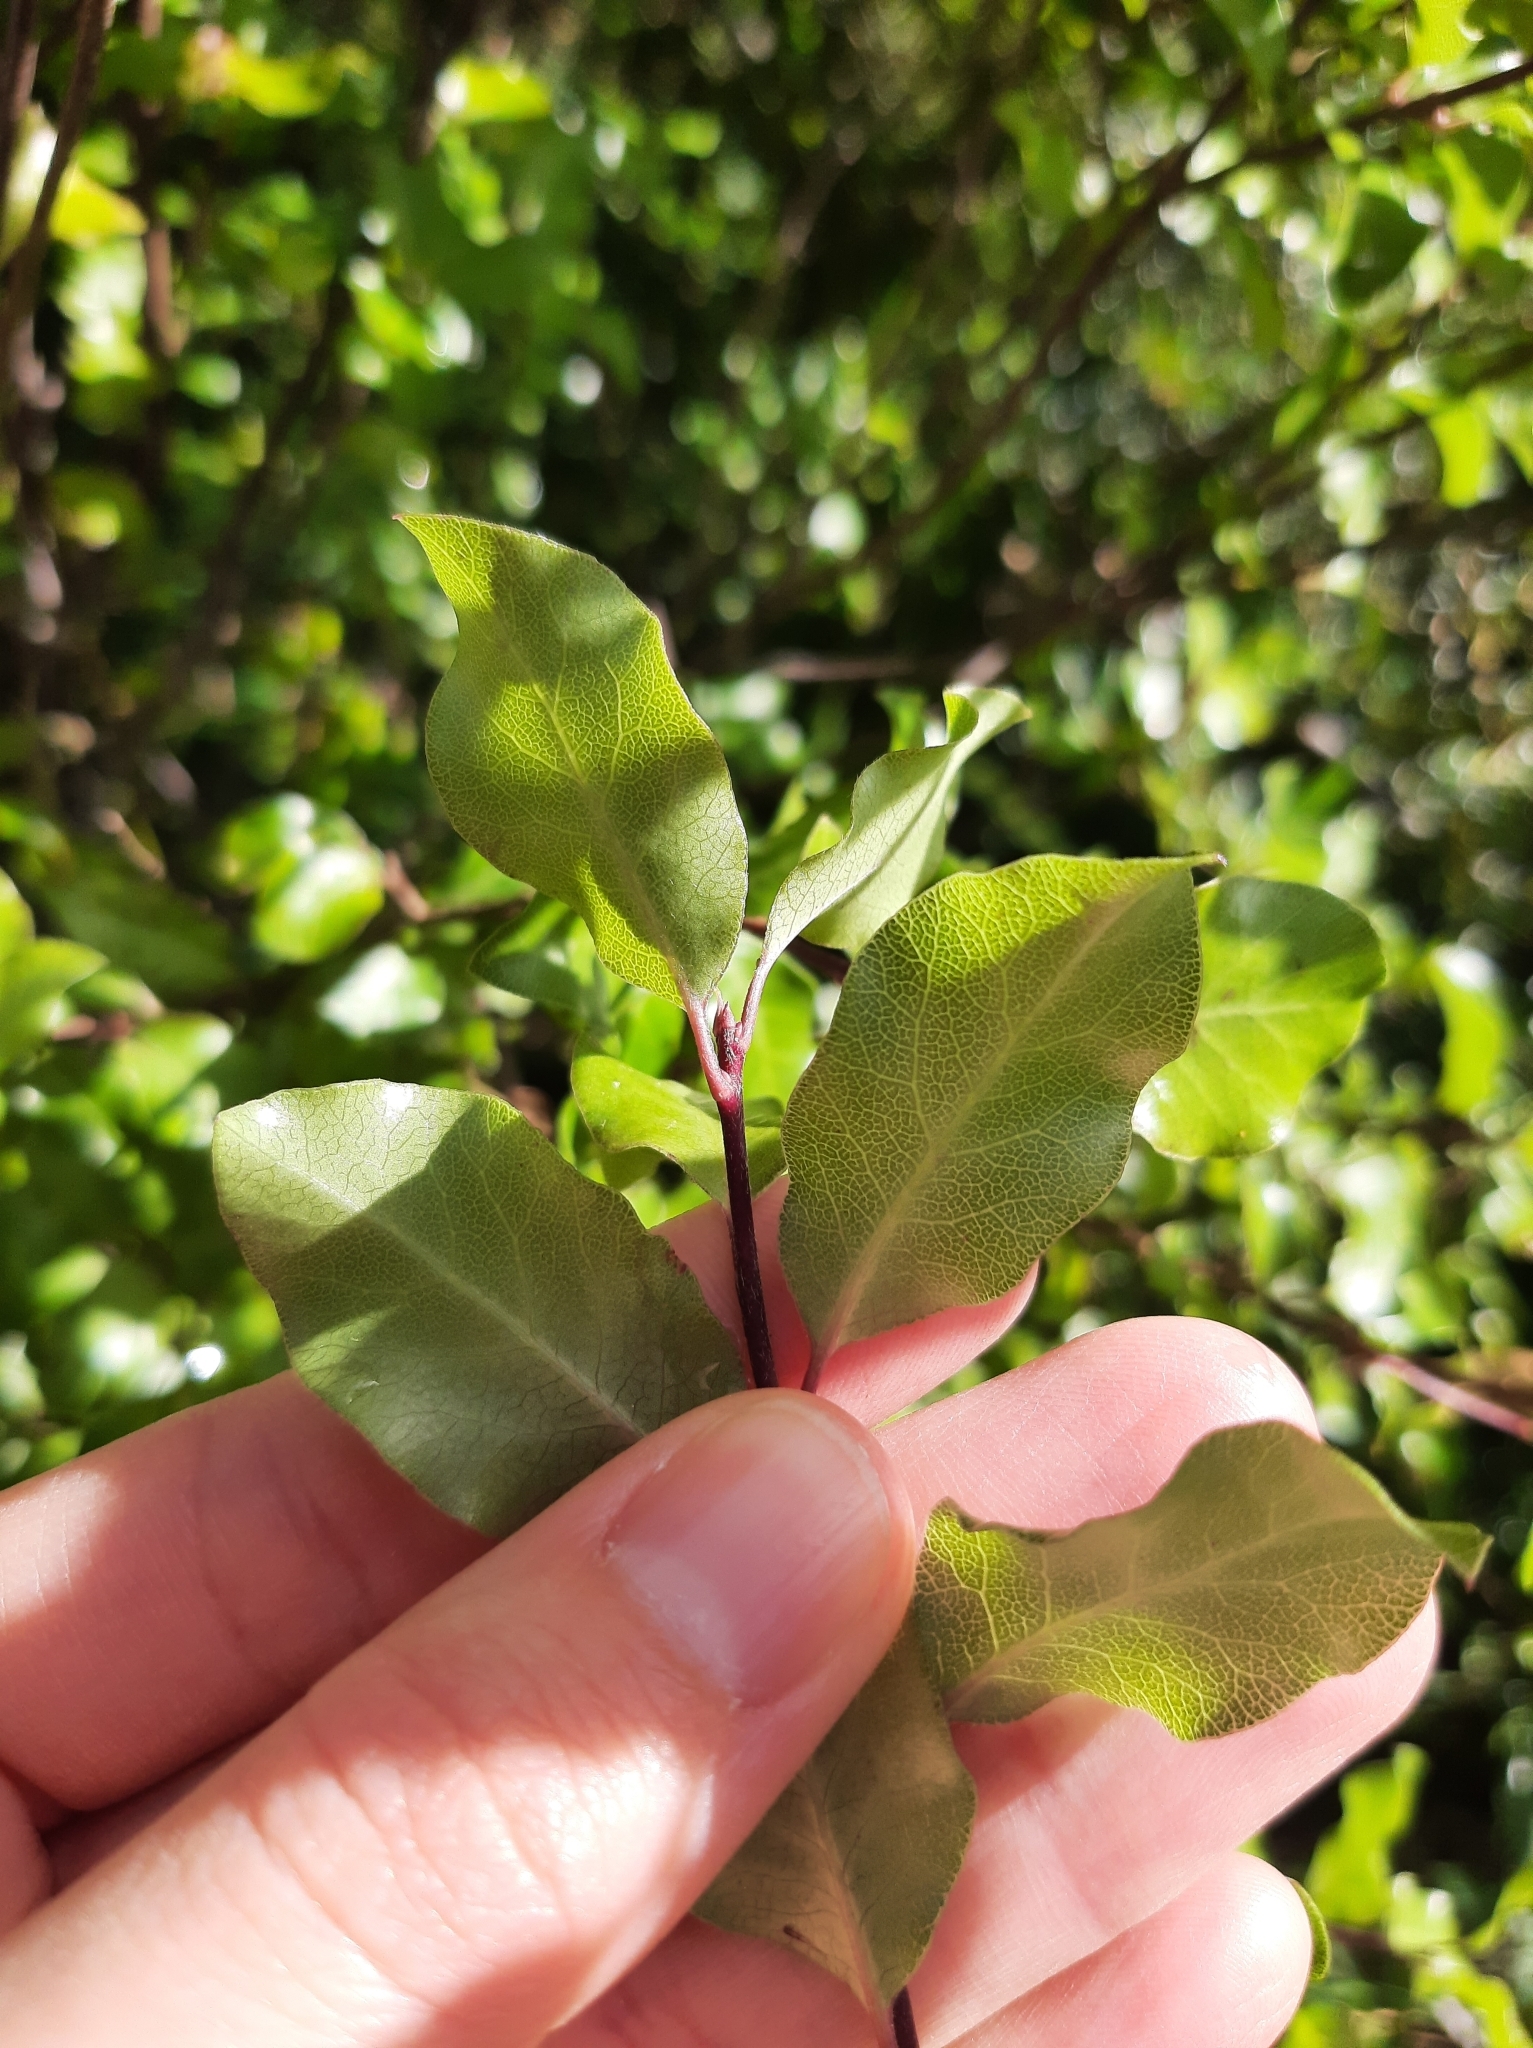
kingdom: Plantae
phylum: Tracheophyta
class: Magnoliopsida
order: Apiales
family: Pittosporaceae
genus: Pittosporum
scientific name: Pittosporum tenuifolium
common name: Kohuhu
